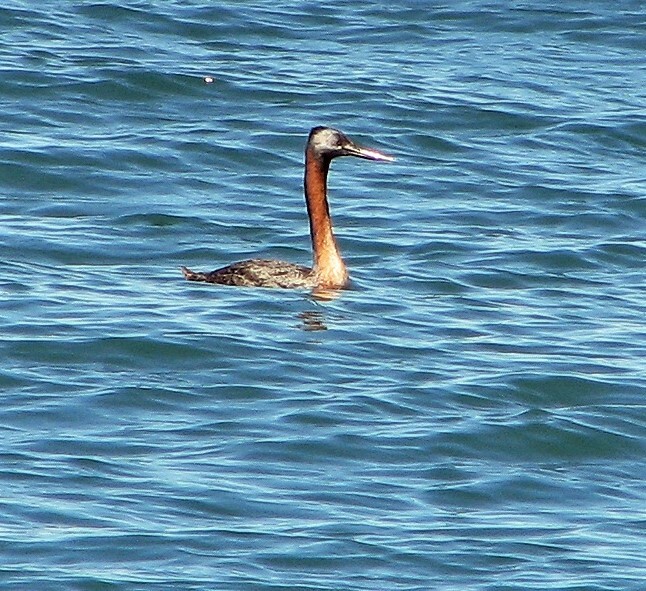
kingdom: Animalia
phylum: Chordata
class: Aves
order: Podicipediformes
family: Podicipedidae
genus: Podiceps
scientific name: Podiceps major
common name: Great grebe
